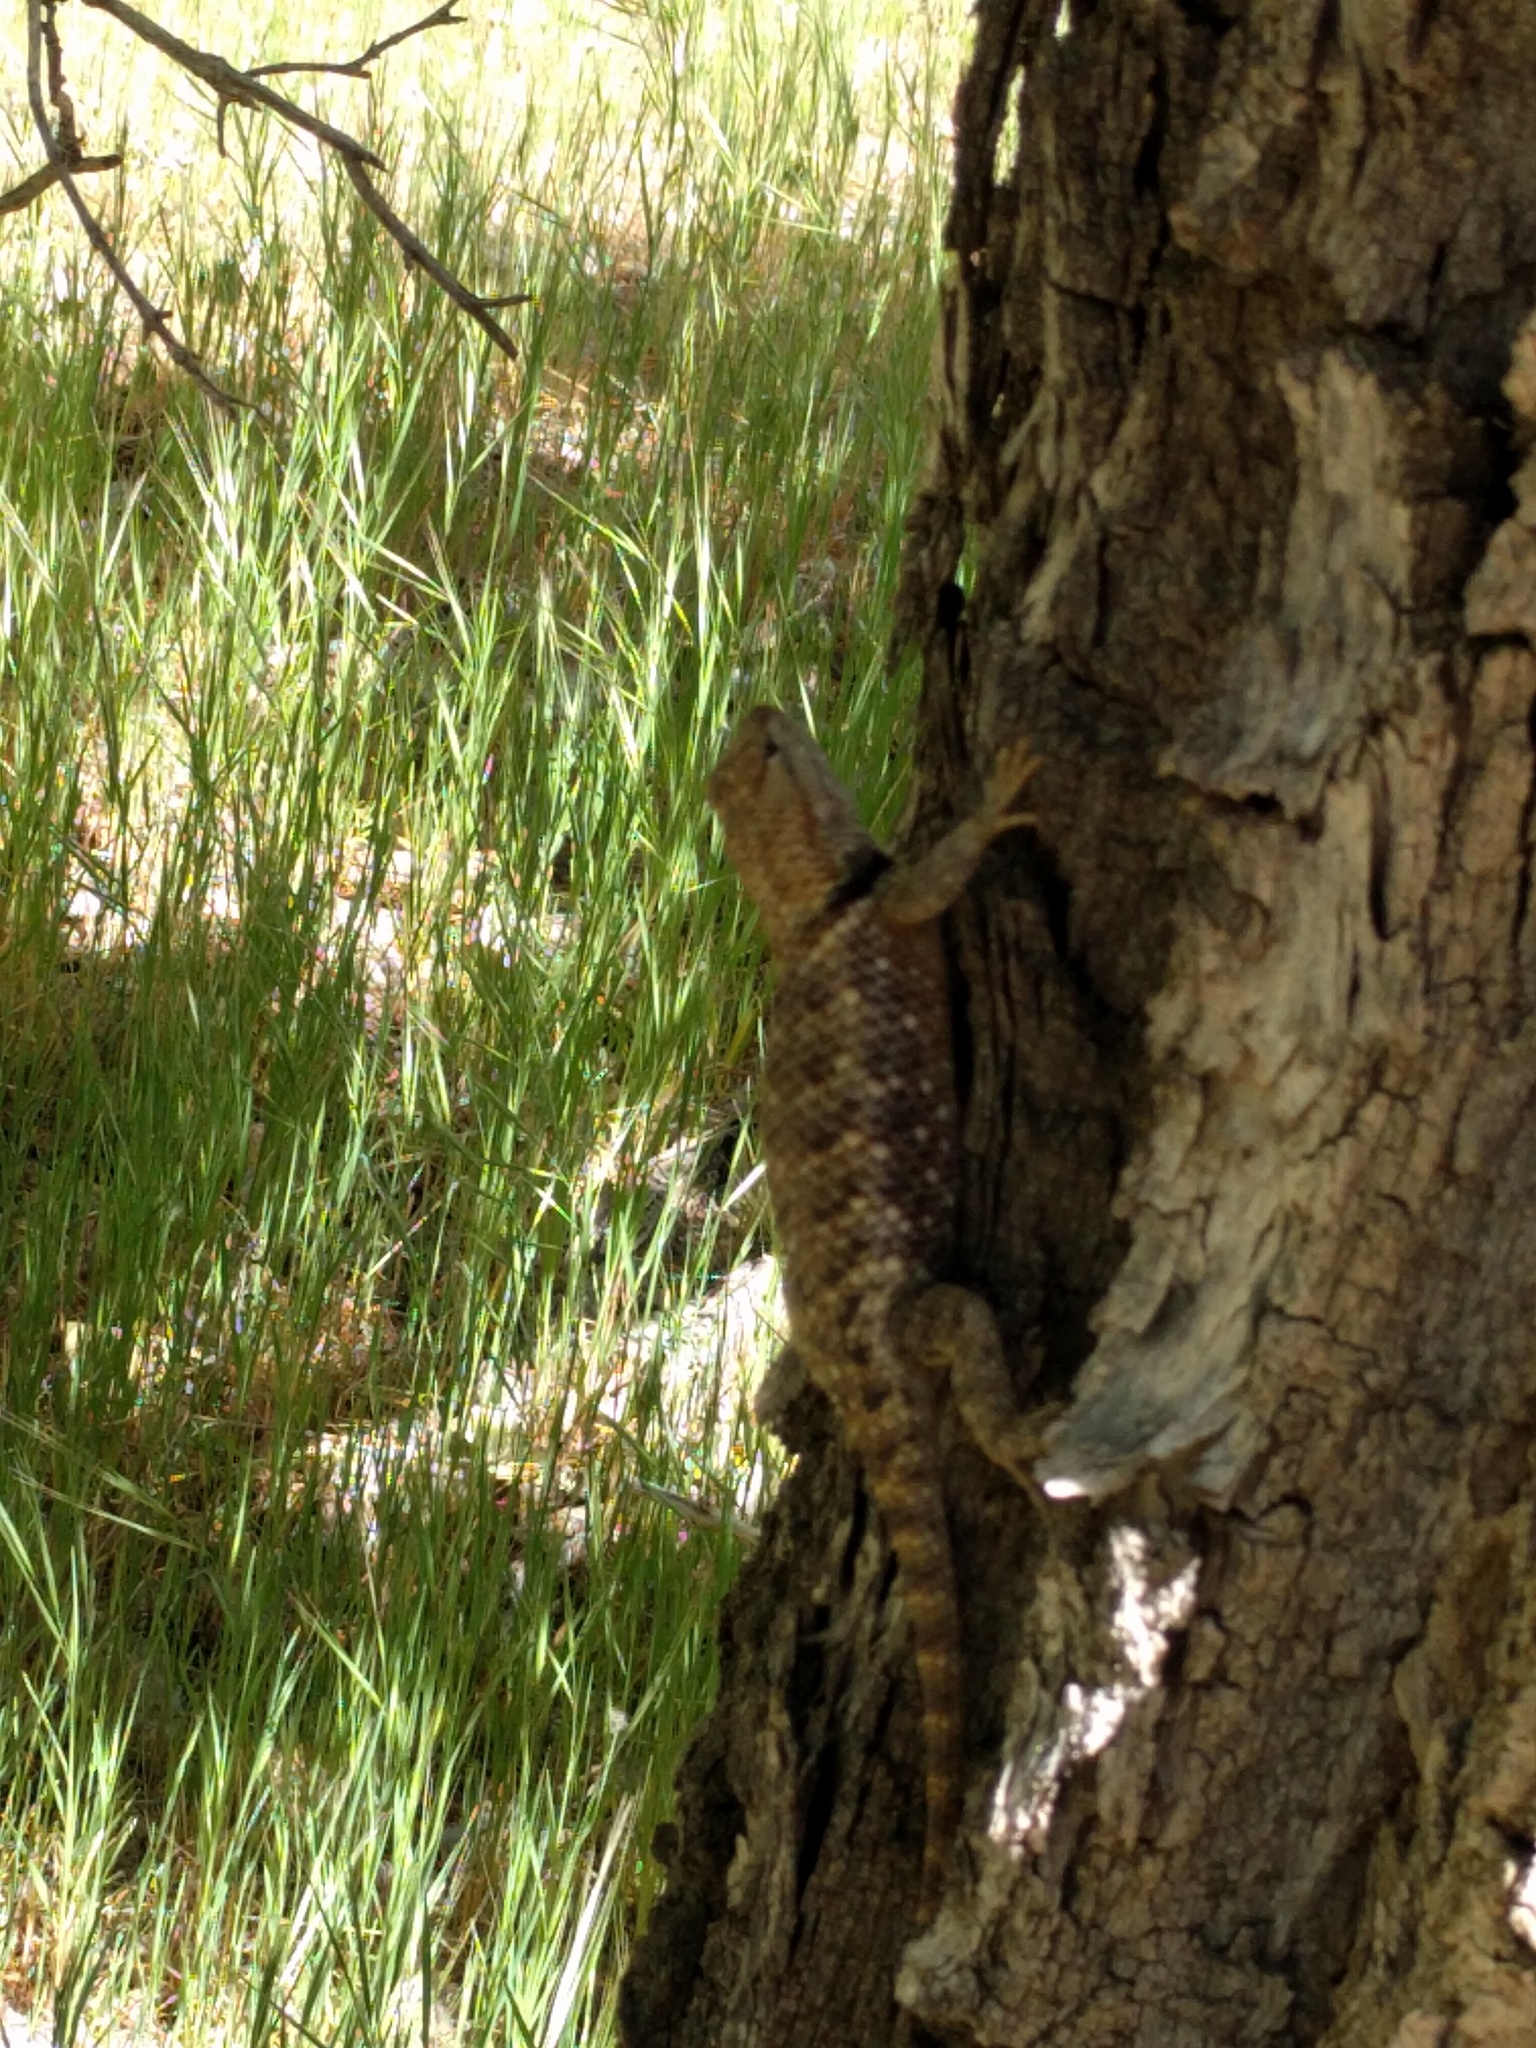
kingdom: Animalia
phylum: Chordata
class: Squamata
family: Phrynosomatidae
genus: Sceloporus
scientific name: Sceloporus uniformis
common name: Yellow-backed spiny lizard
